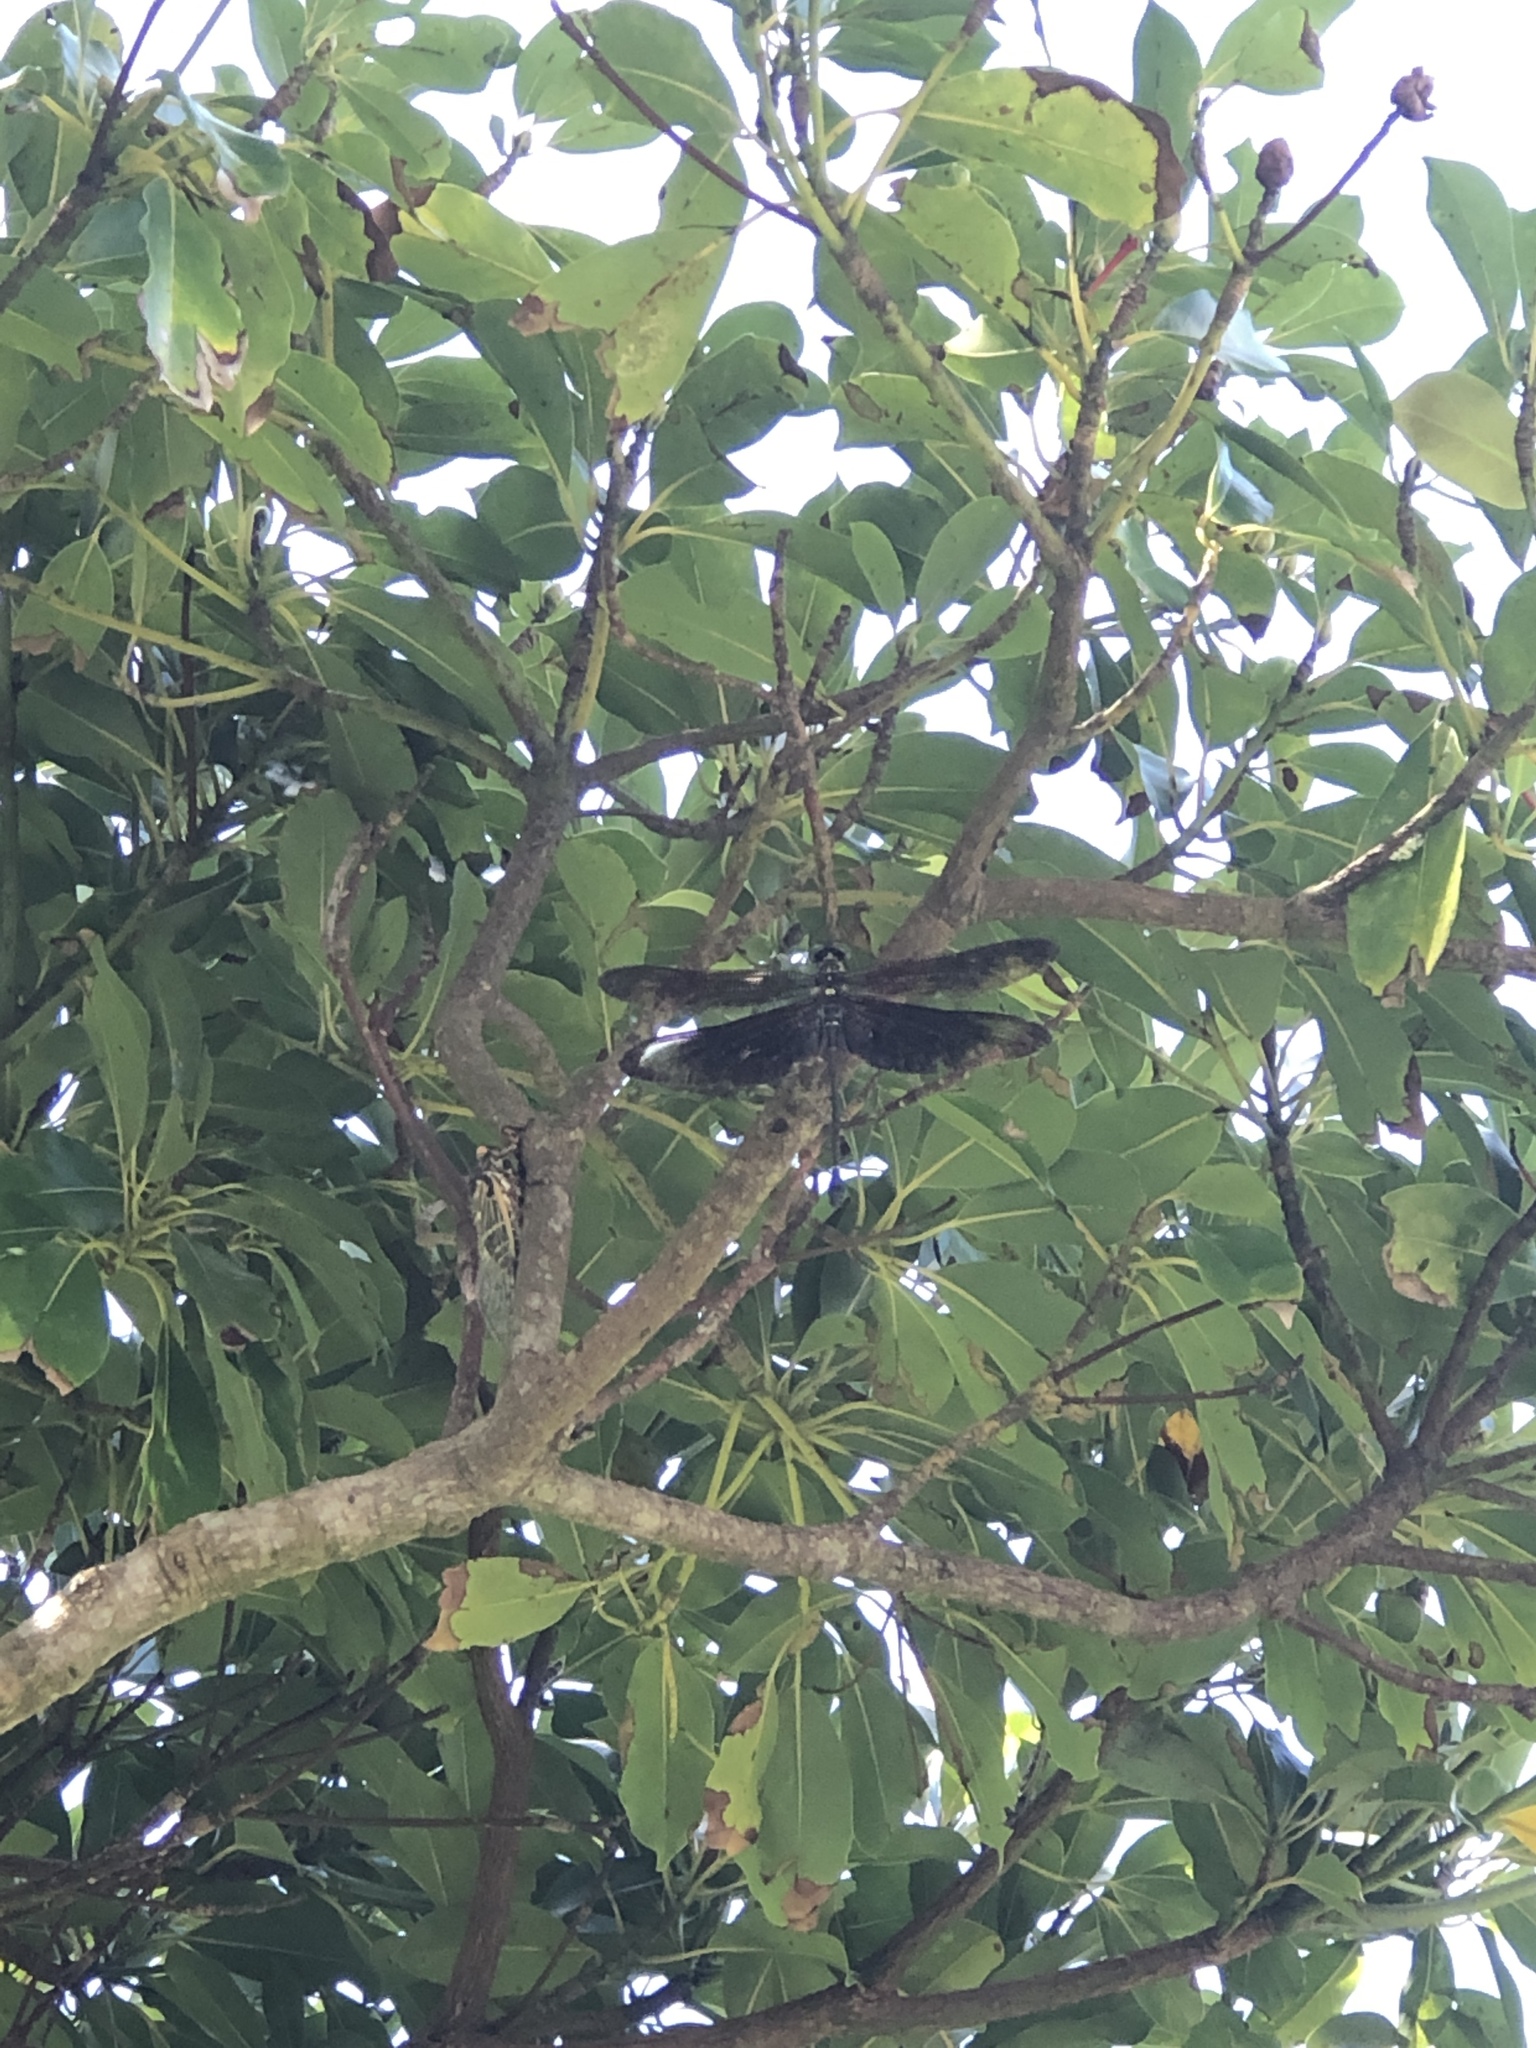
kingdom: Animalia
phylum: Arthropoda
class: Insecta
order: Odonata
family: Chlorogomphidae
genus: Chlorogomphus
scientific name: Chlorogomphus brunneus
